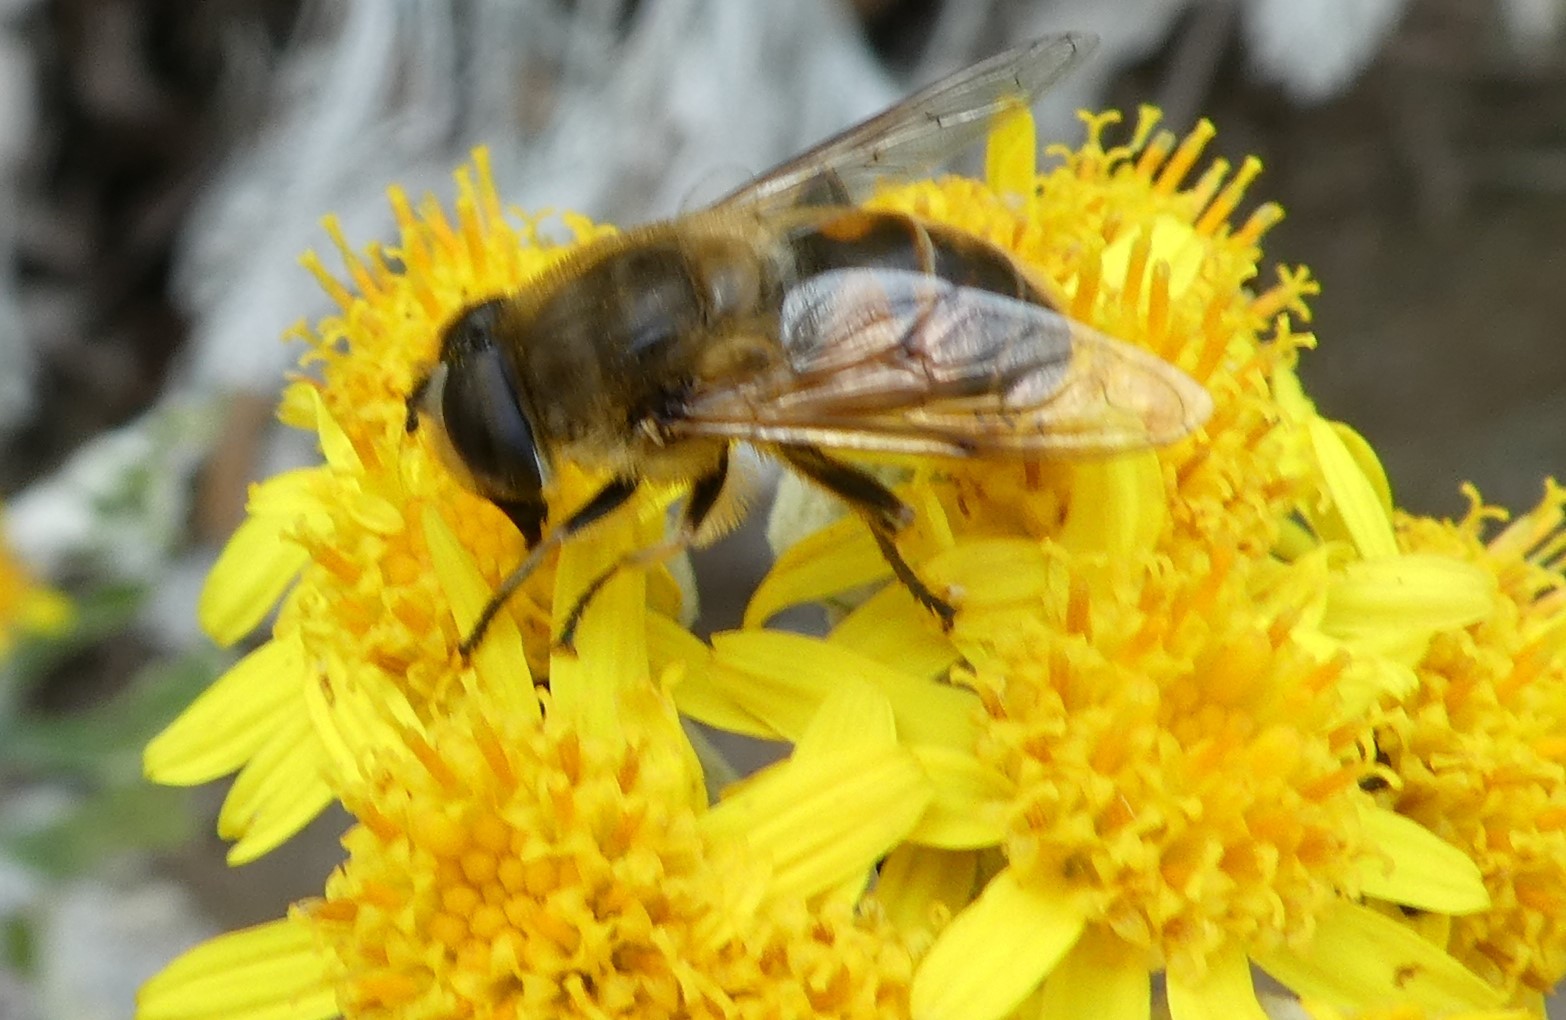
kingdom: Animalia
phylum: Arthropoda
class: Insecta
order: Diptera
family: Syrphidae
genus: Eristalis
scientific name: Eristalis tenax
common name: Drone fly
